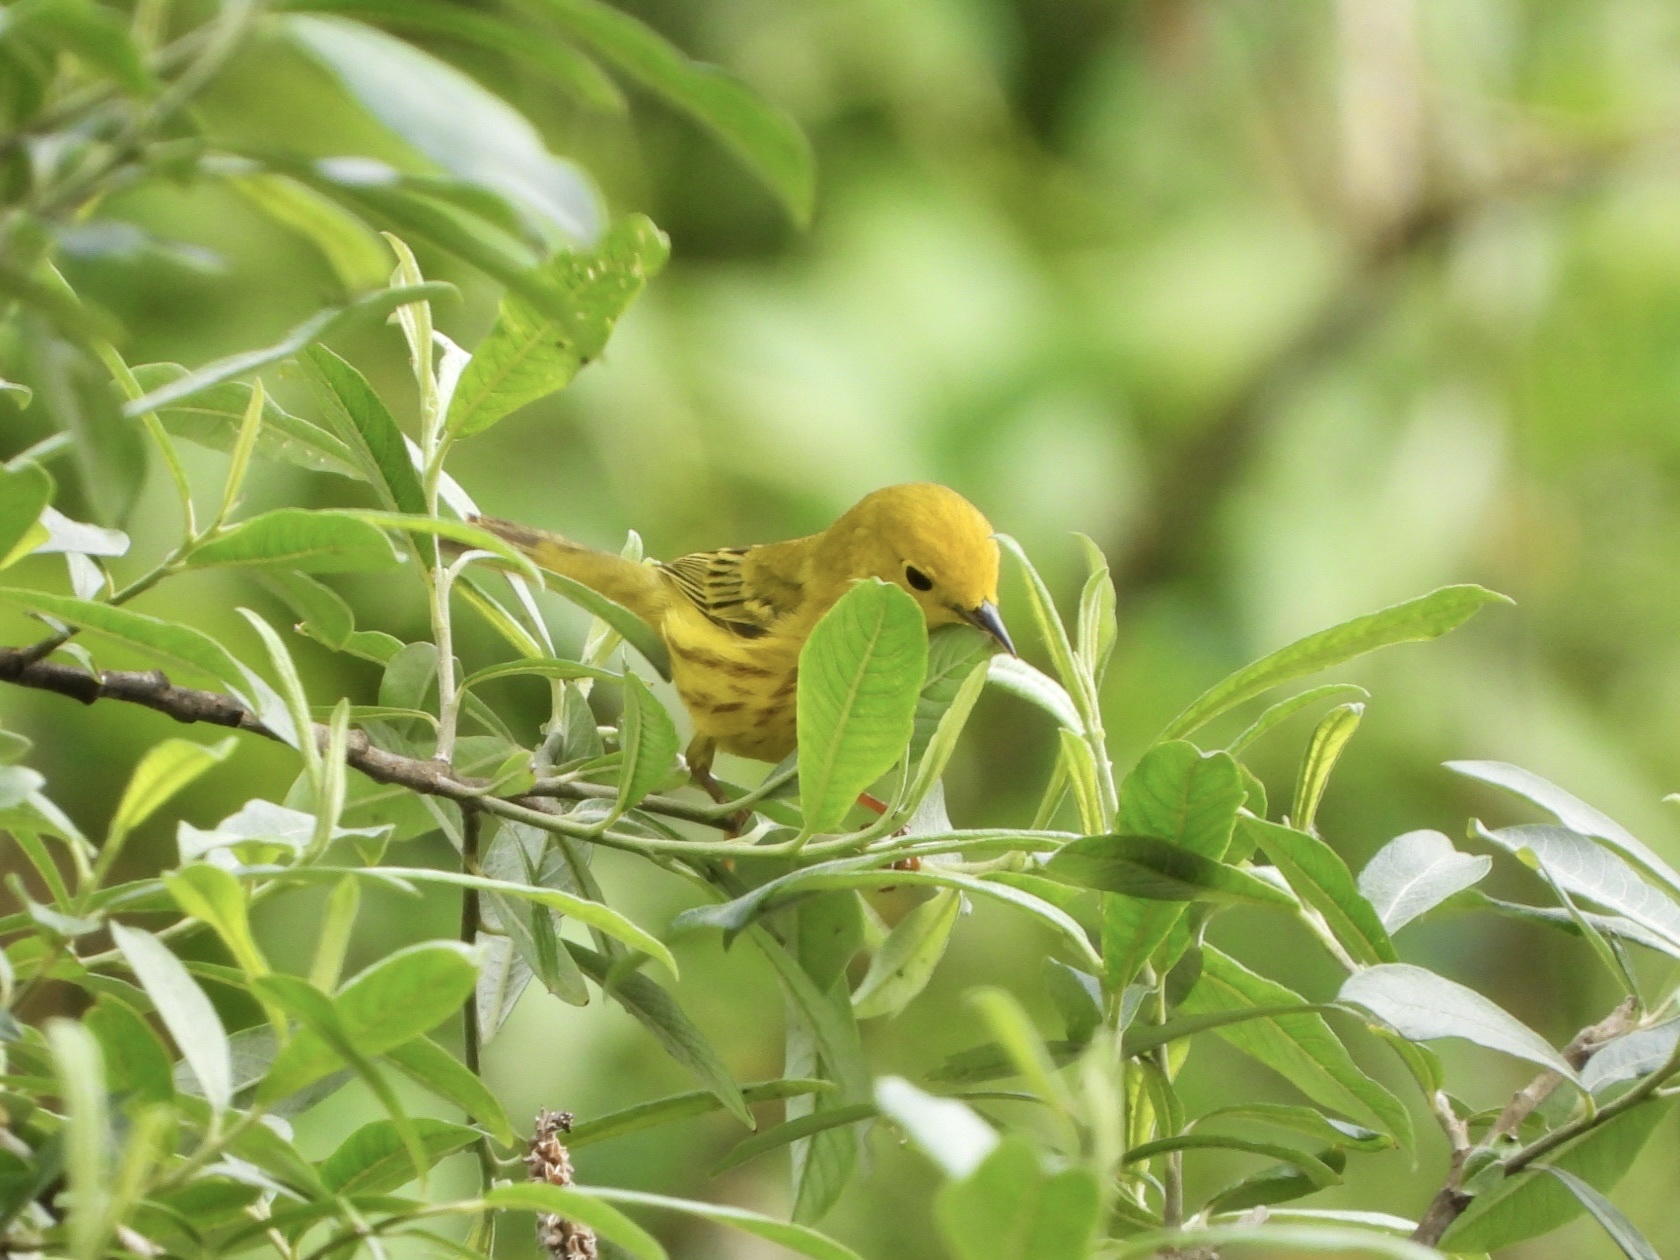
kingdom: Animalia
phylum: Chordata
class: Aves
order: Passeriformes
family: Parulidae
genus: Setophaga
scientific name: Setophaga petechia
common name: Yellow warbler
